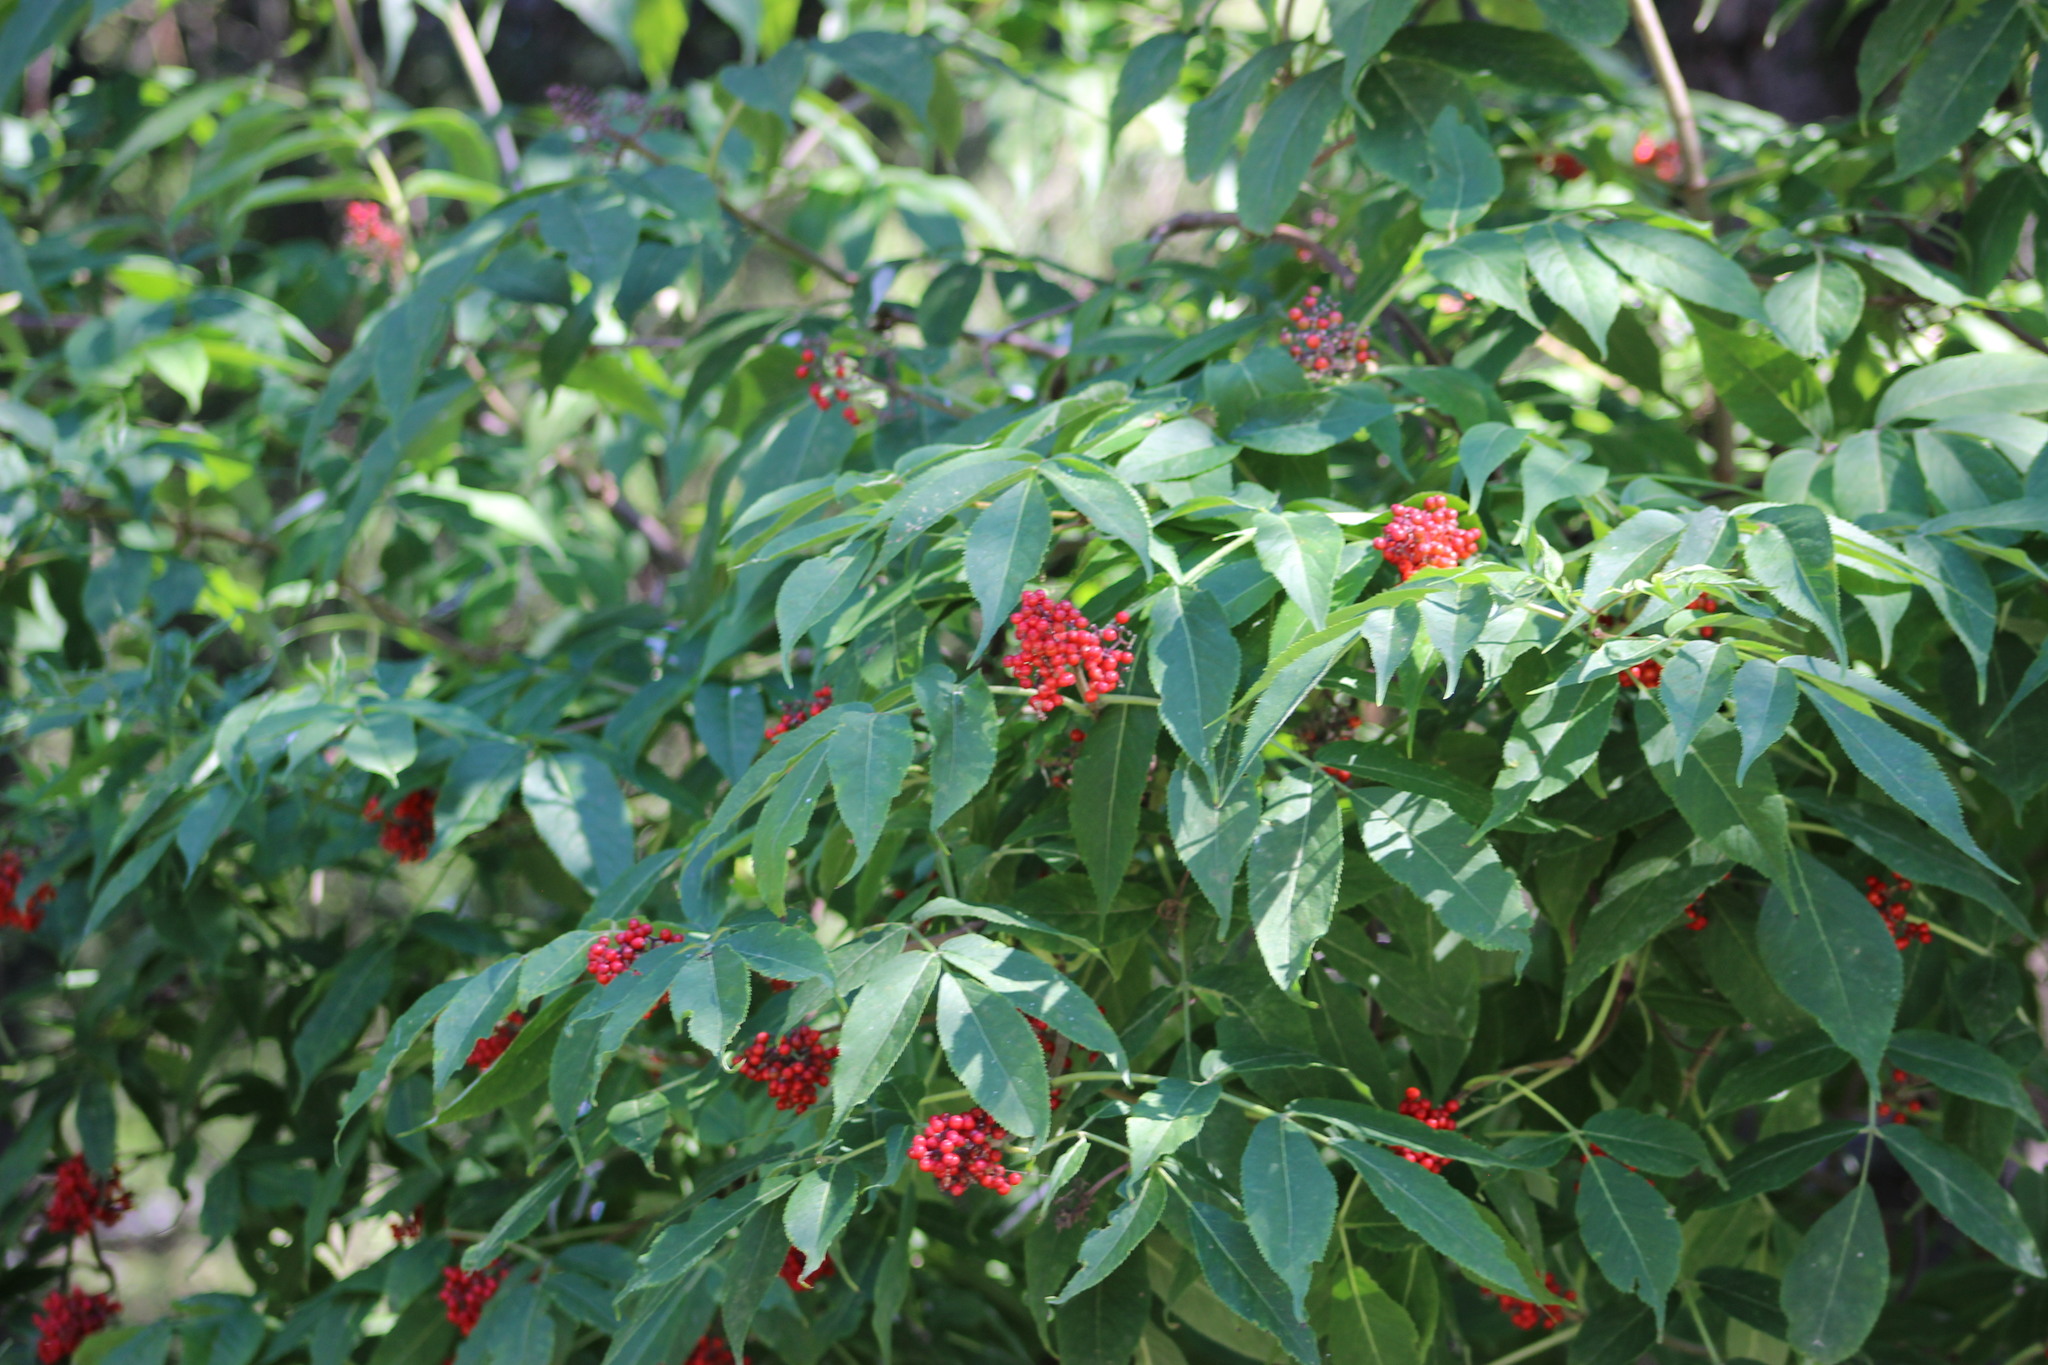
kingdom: Plantae
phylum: Tracheophyta
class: Magnoliopsida
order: Dipsacales
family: Viburnaceae
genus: Sambucus
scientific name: Sambucus sibirica
